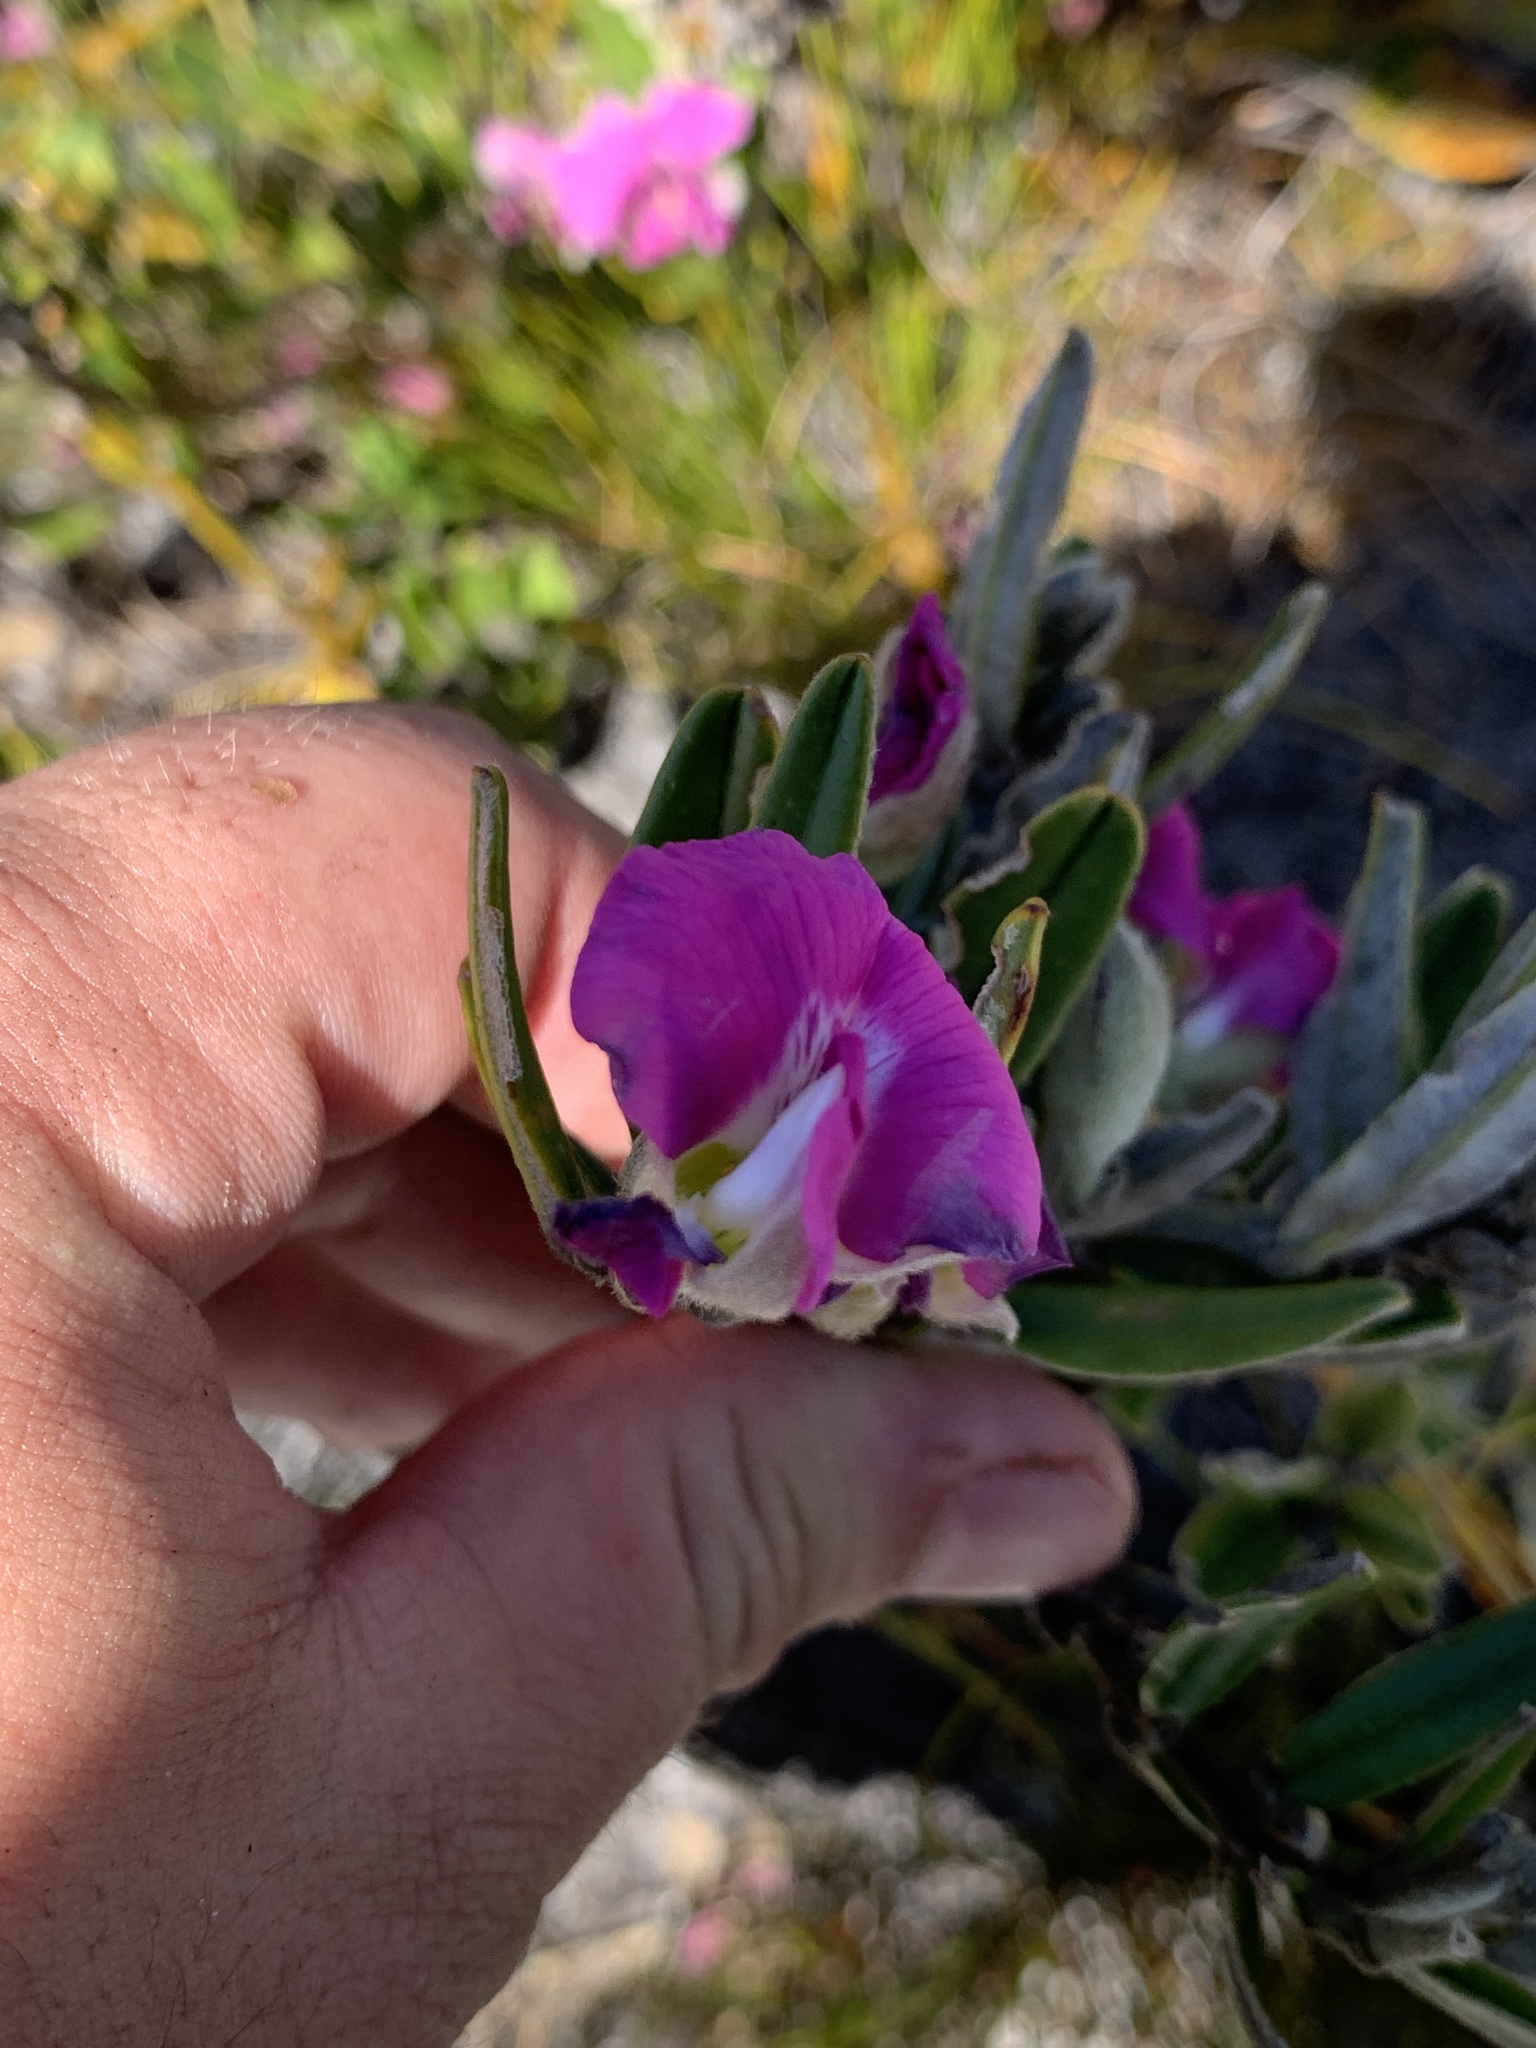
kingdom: Plantae
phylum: Tracheophyta
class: Magnoliopsida
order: Fabales
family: Fabaceae
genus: Podalyria
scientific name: Podalyria oleifolia
